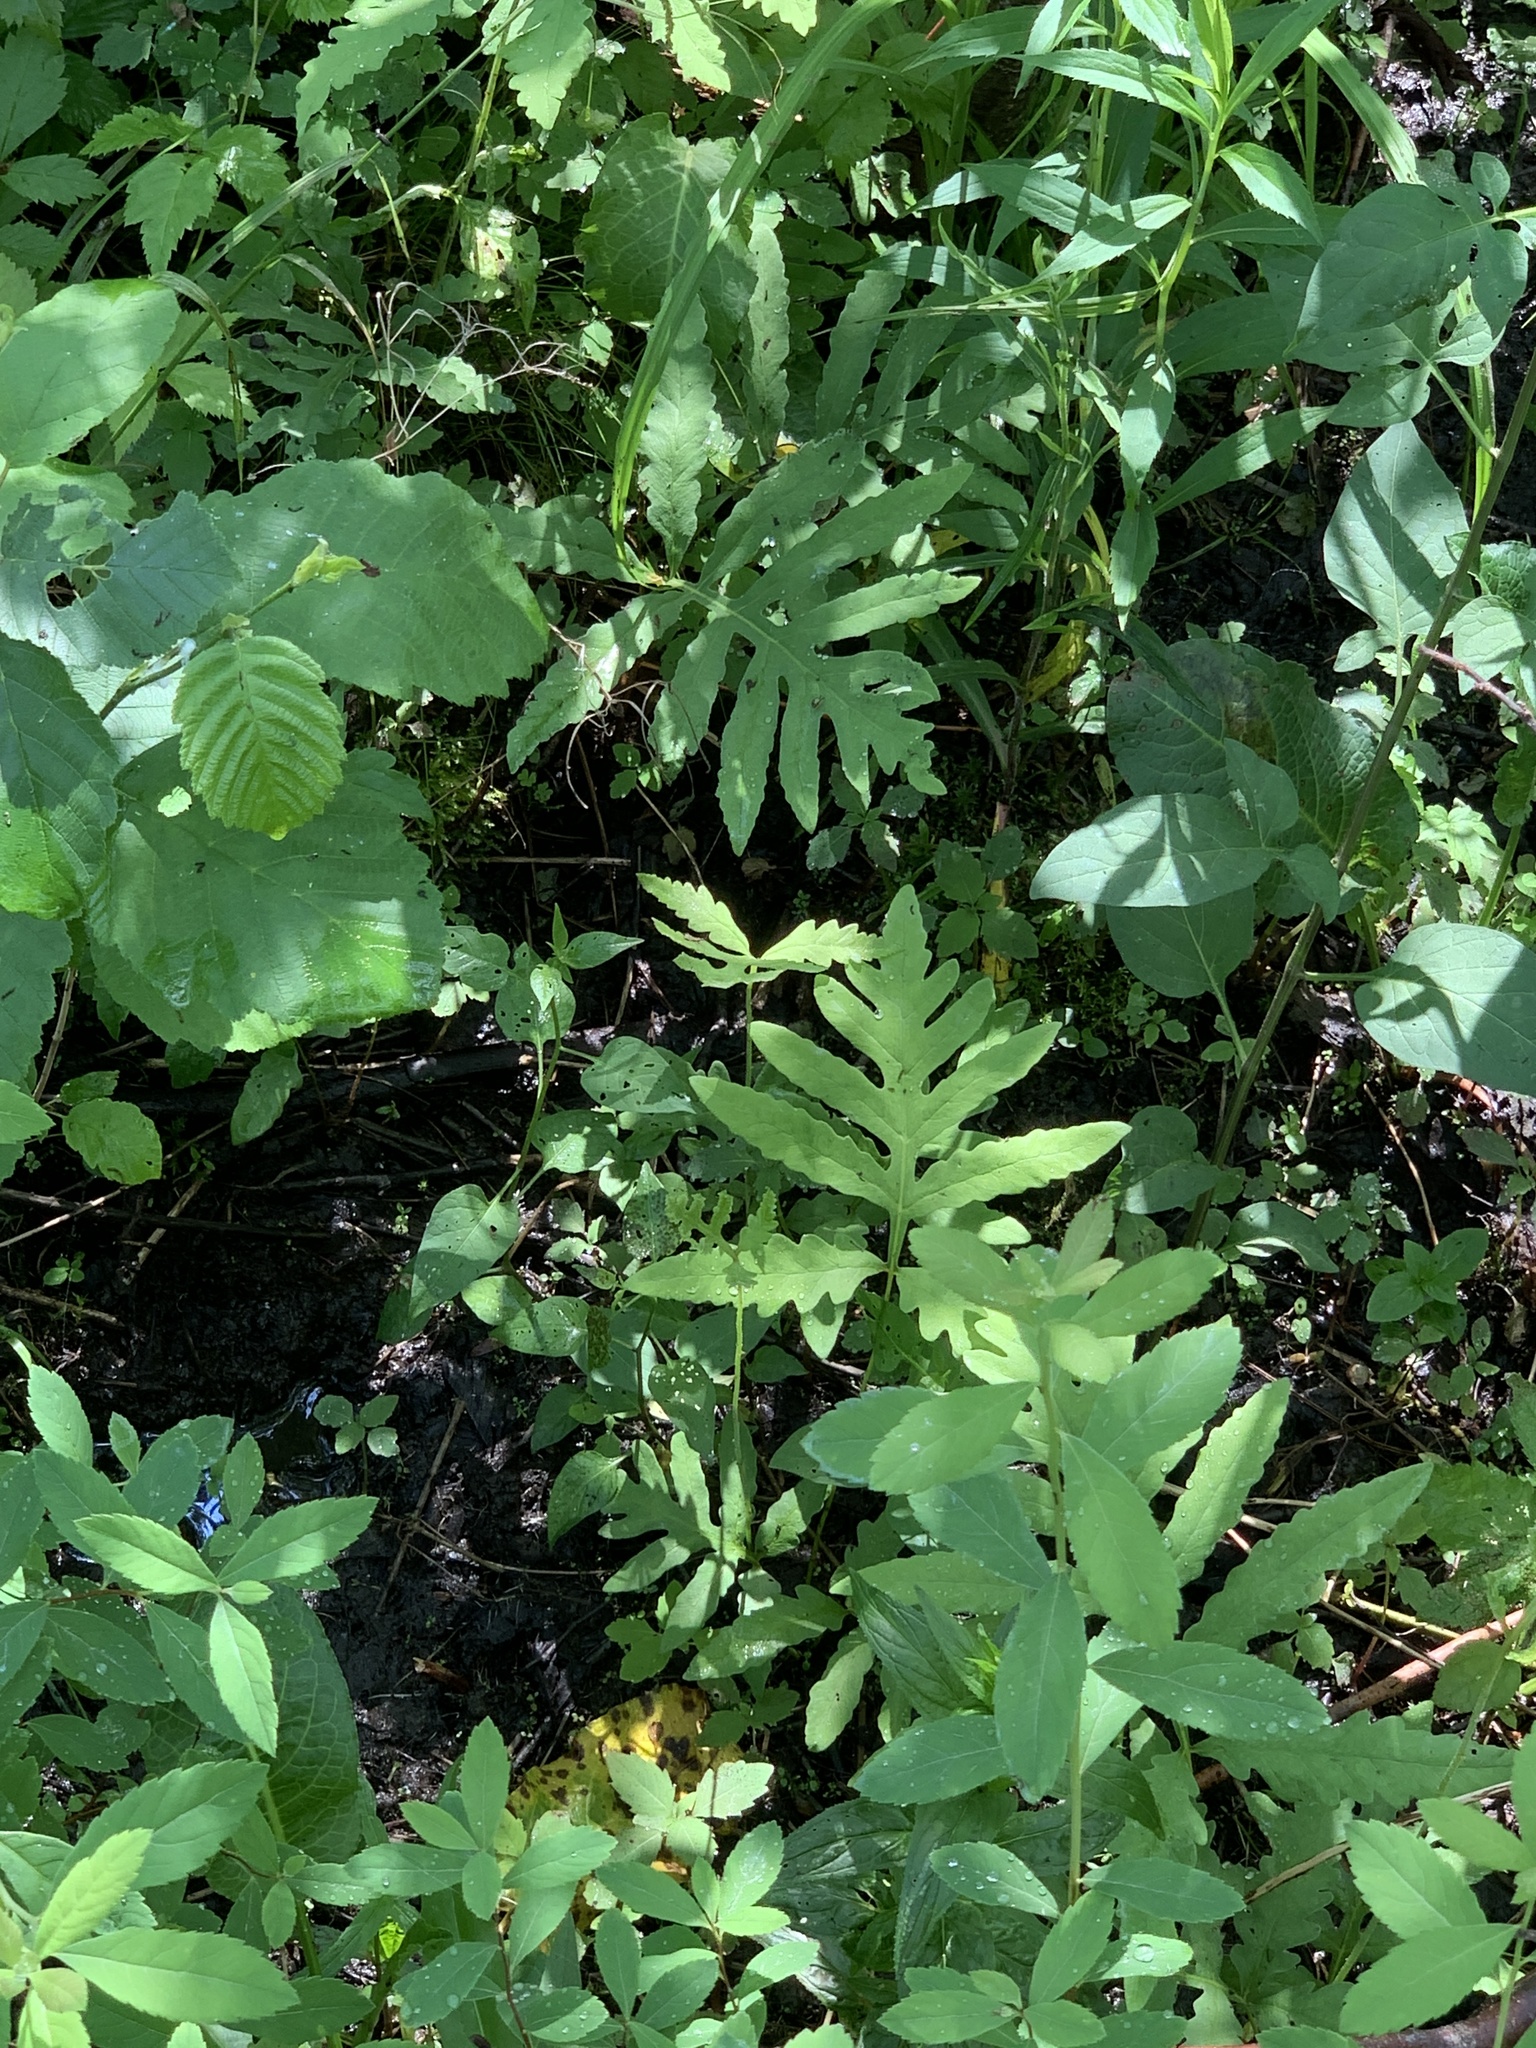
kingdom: Plantae
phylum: Tracheophyta
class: Polypodiopsida
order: Polypodiales
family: Onocleaceae
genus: Onoclea
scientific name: Onoclea sensibilis
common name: Sensitive fern
